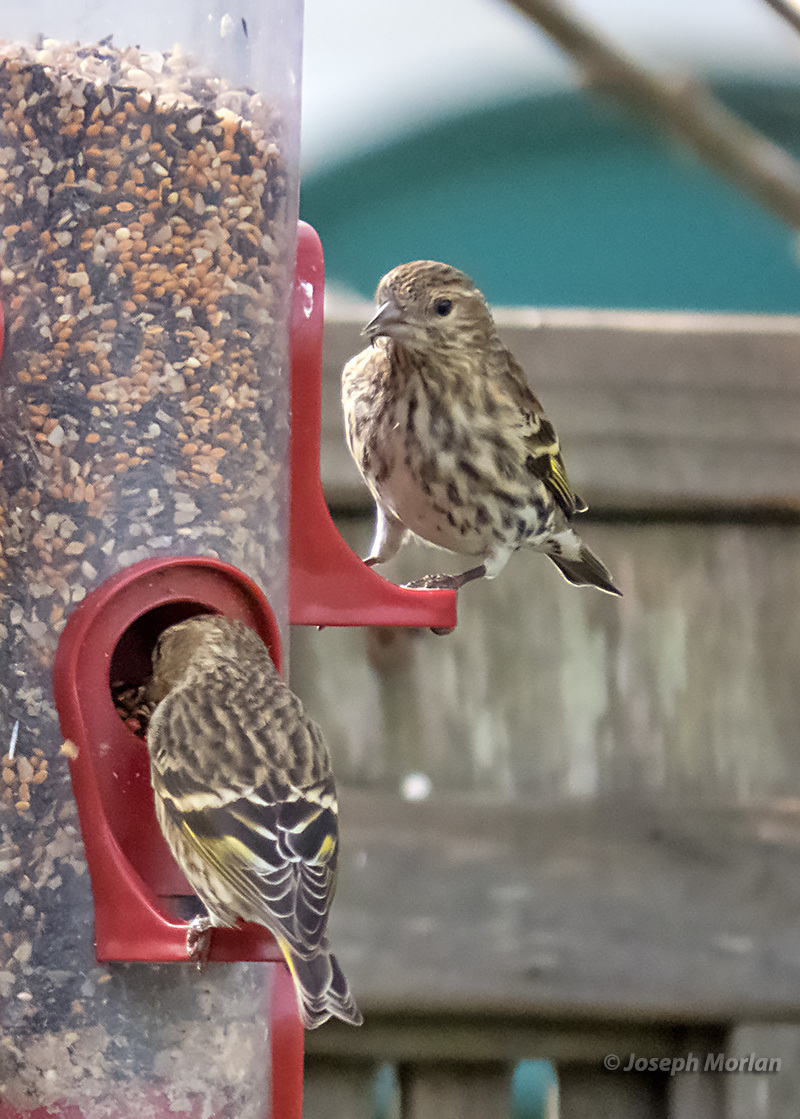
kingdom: Animalia
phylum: Chordata
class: Aves
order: Passeriformes
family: Fringillidae
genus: Spinus
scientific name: Spinus pinus
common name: Pine siskin
